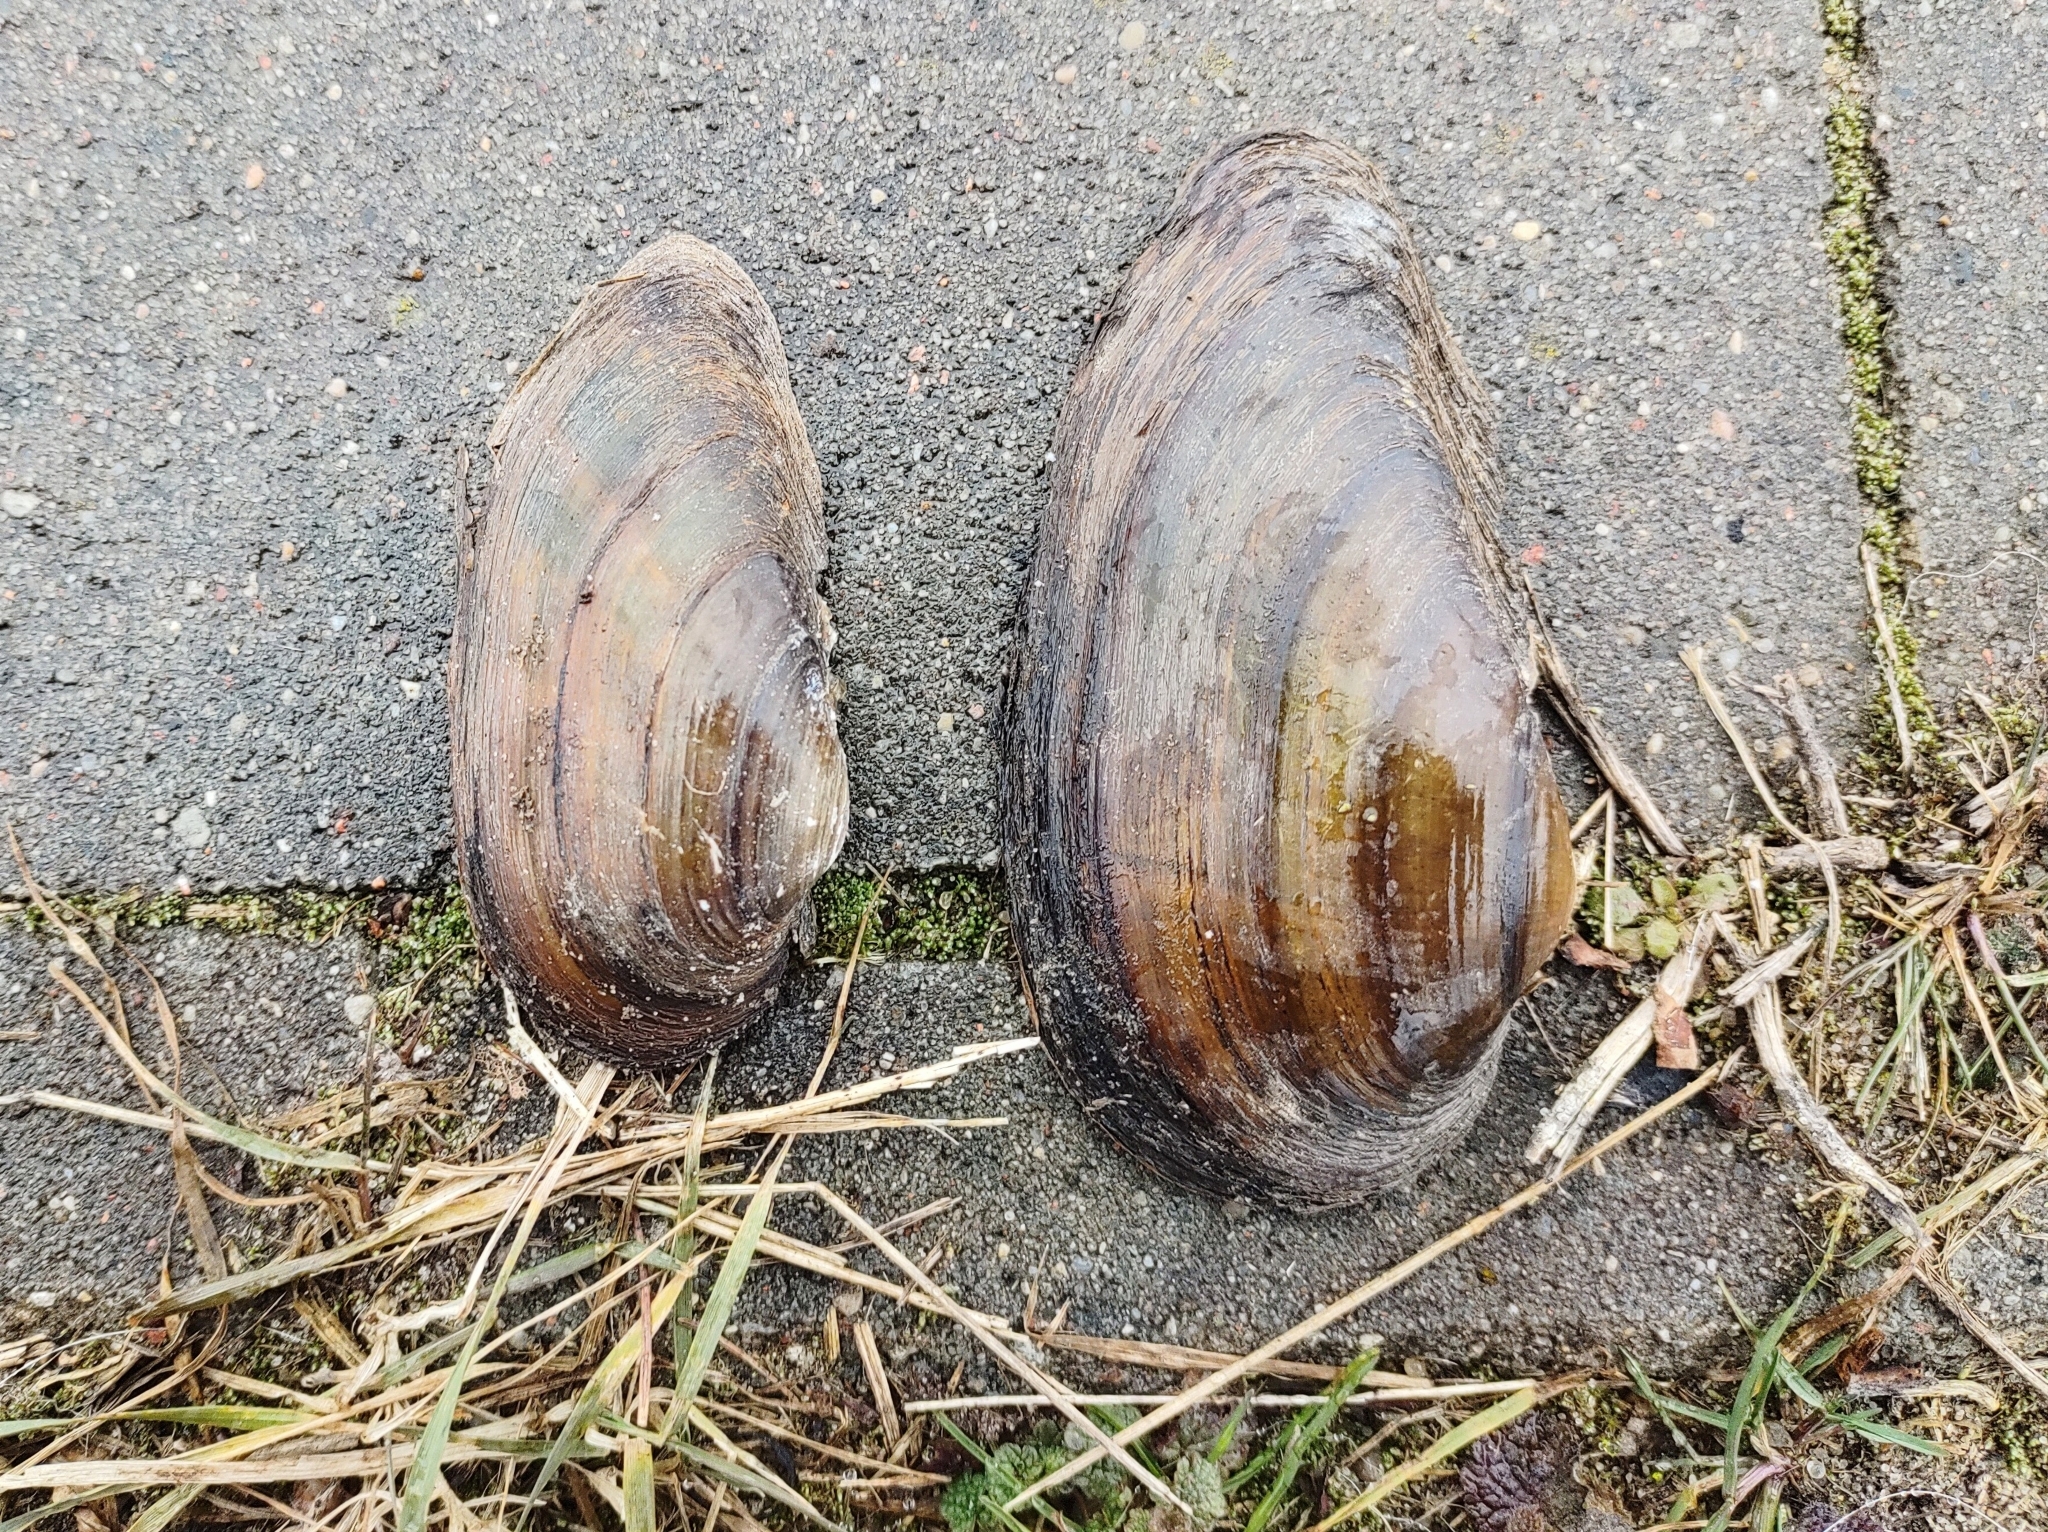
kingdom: Animalia
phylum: Mollusca
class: Bivalvia
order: Unionida
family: Unionidae
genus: Unio
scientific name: Unio tumidus
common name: Swollen river mussel
